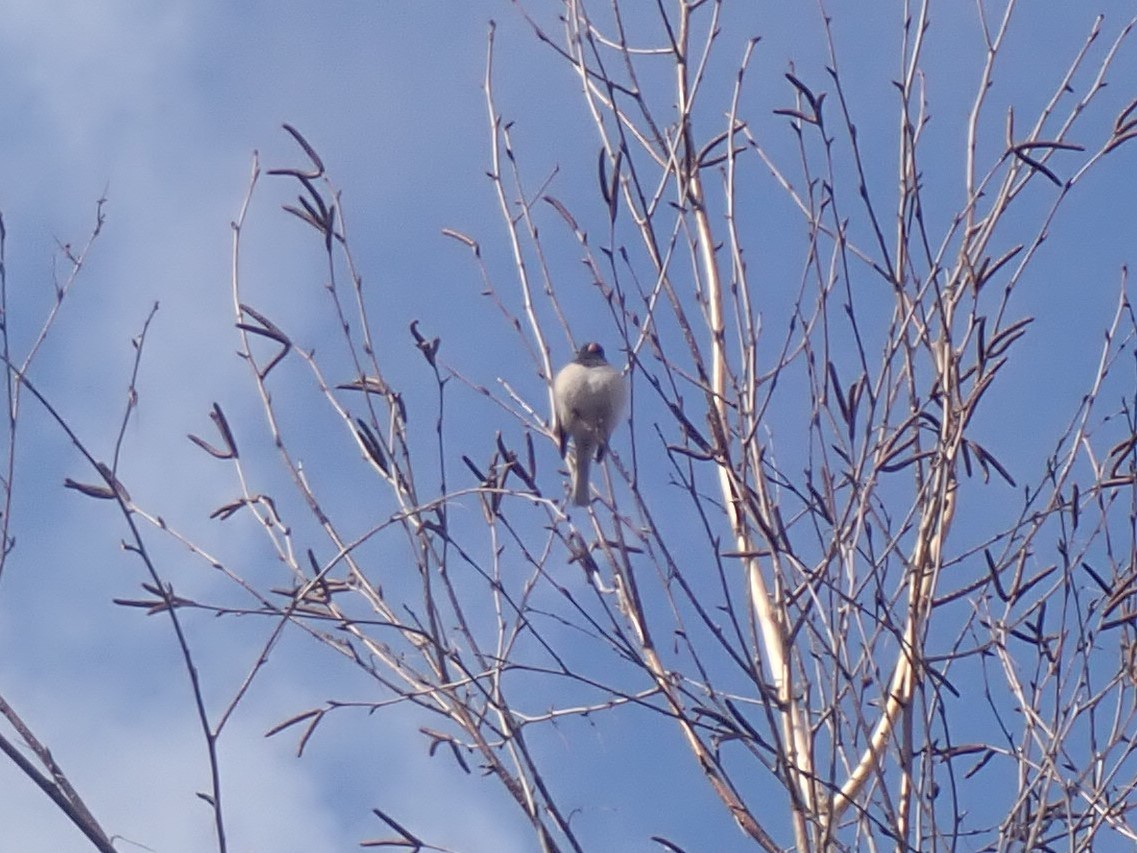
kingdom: Animalia
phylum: Chordata
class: Aves
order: Passeriformes
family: Passerellidae
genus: Junco
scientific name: Junco hyemalis
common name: Dark-eyed junco
